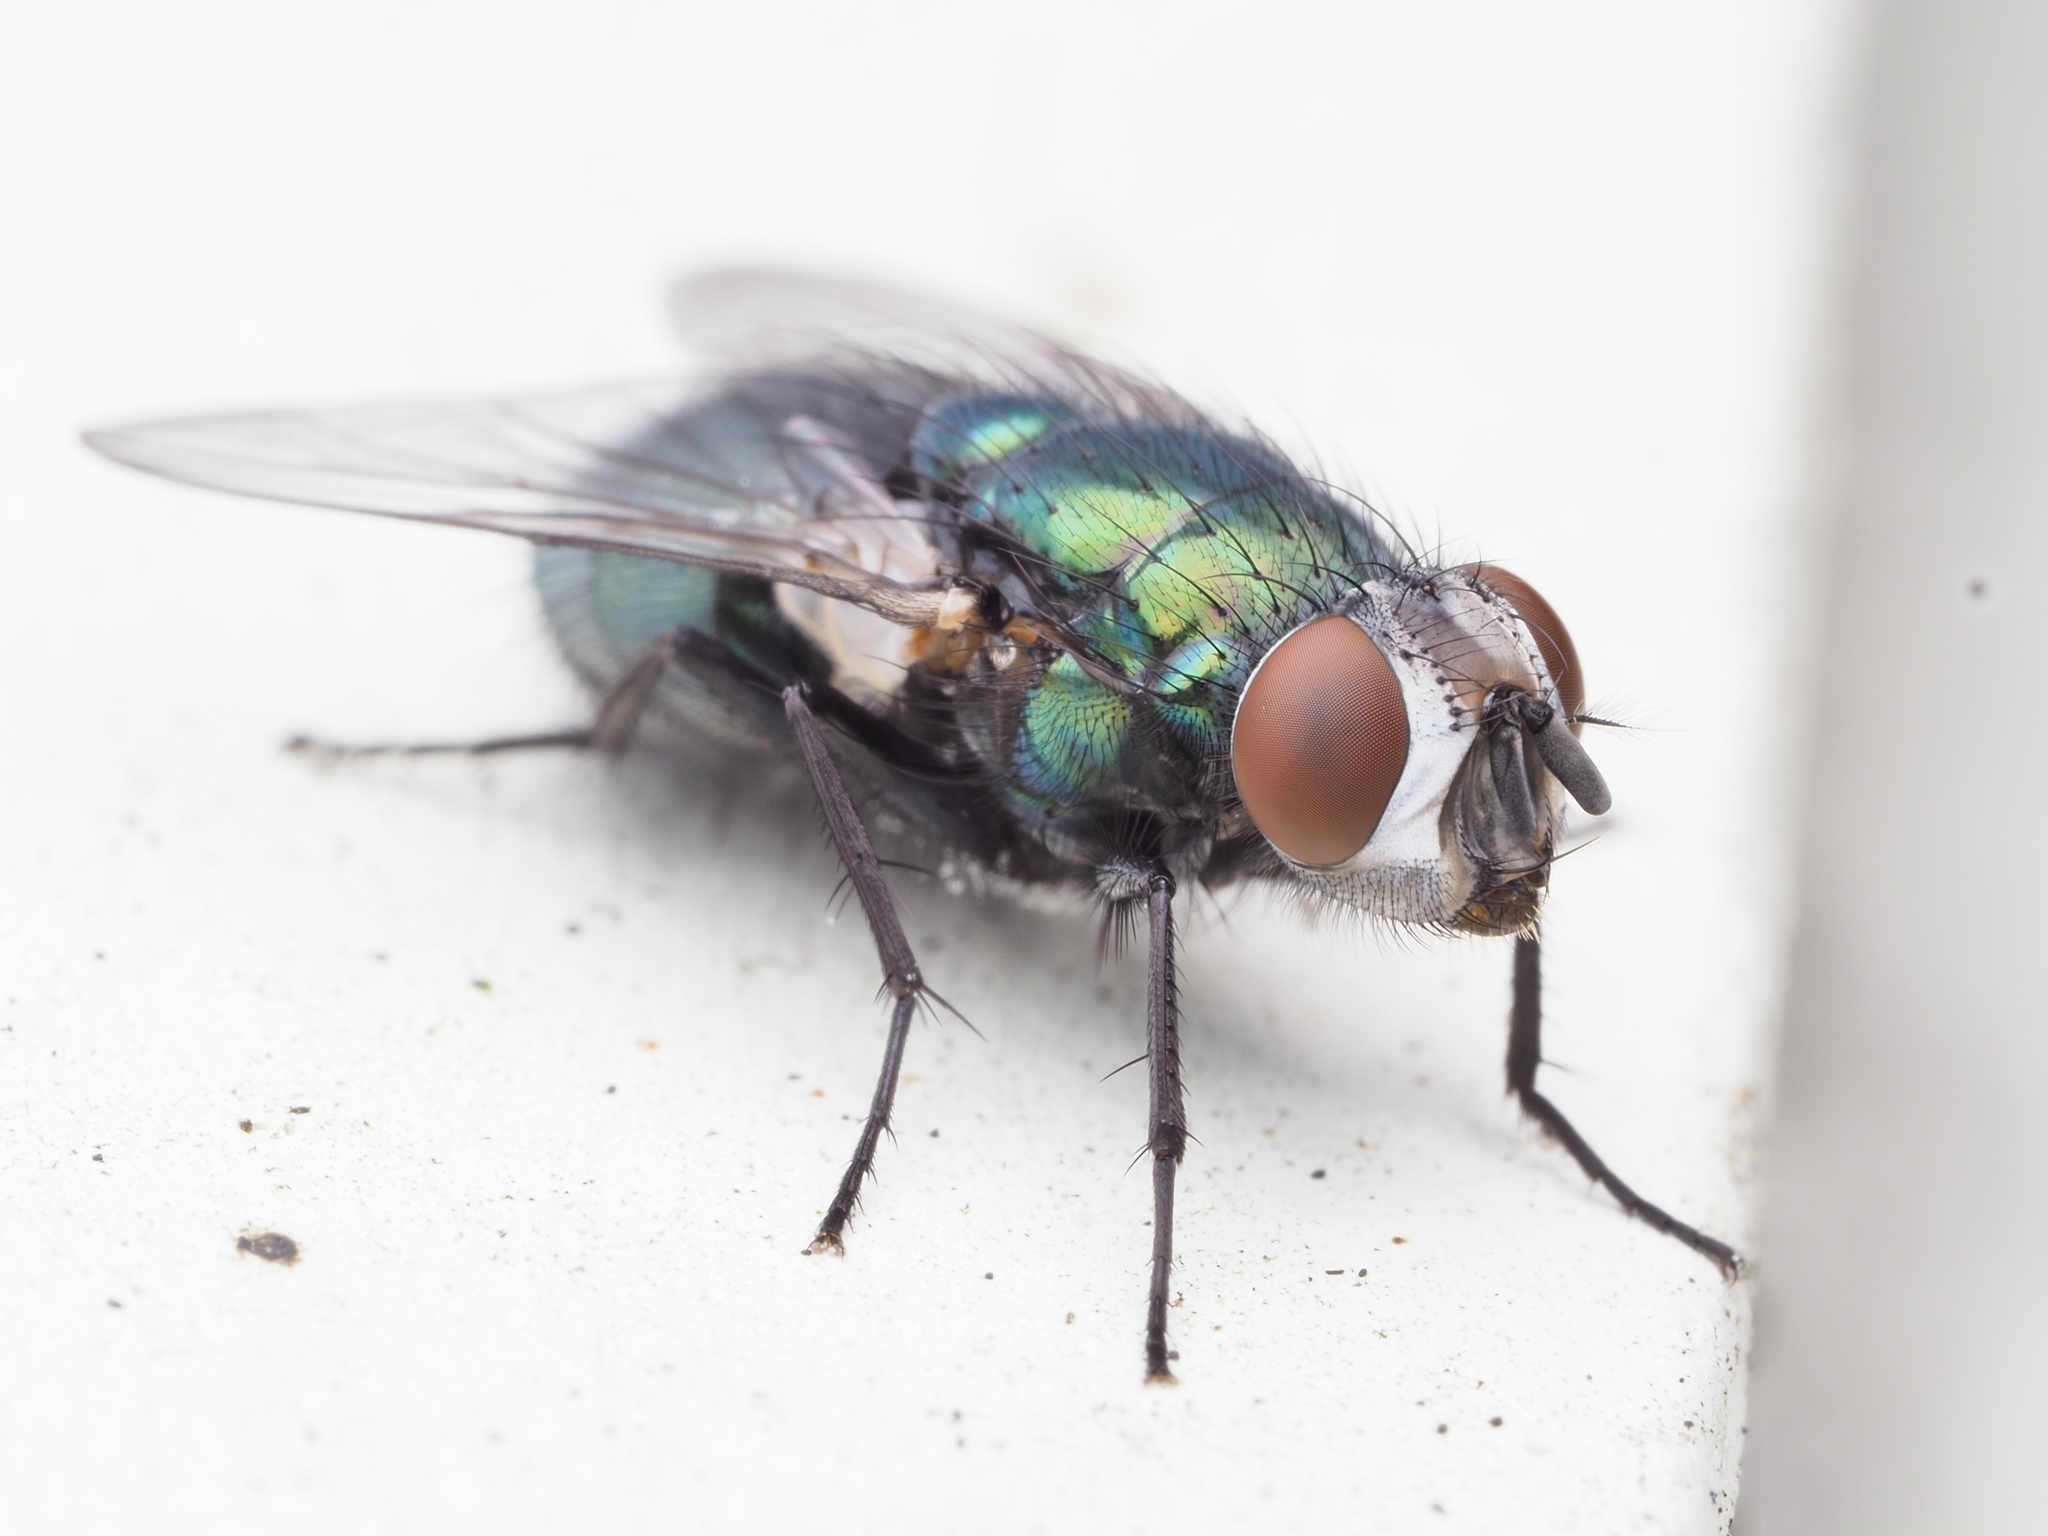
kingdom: Animalia
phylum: Arthropoda
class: Insecta
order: Diptera
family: Calliphoridae
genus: Lucilia
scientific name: Lucilia sericata
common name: Blow fly
